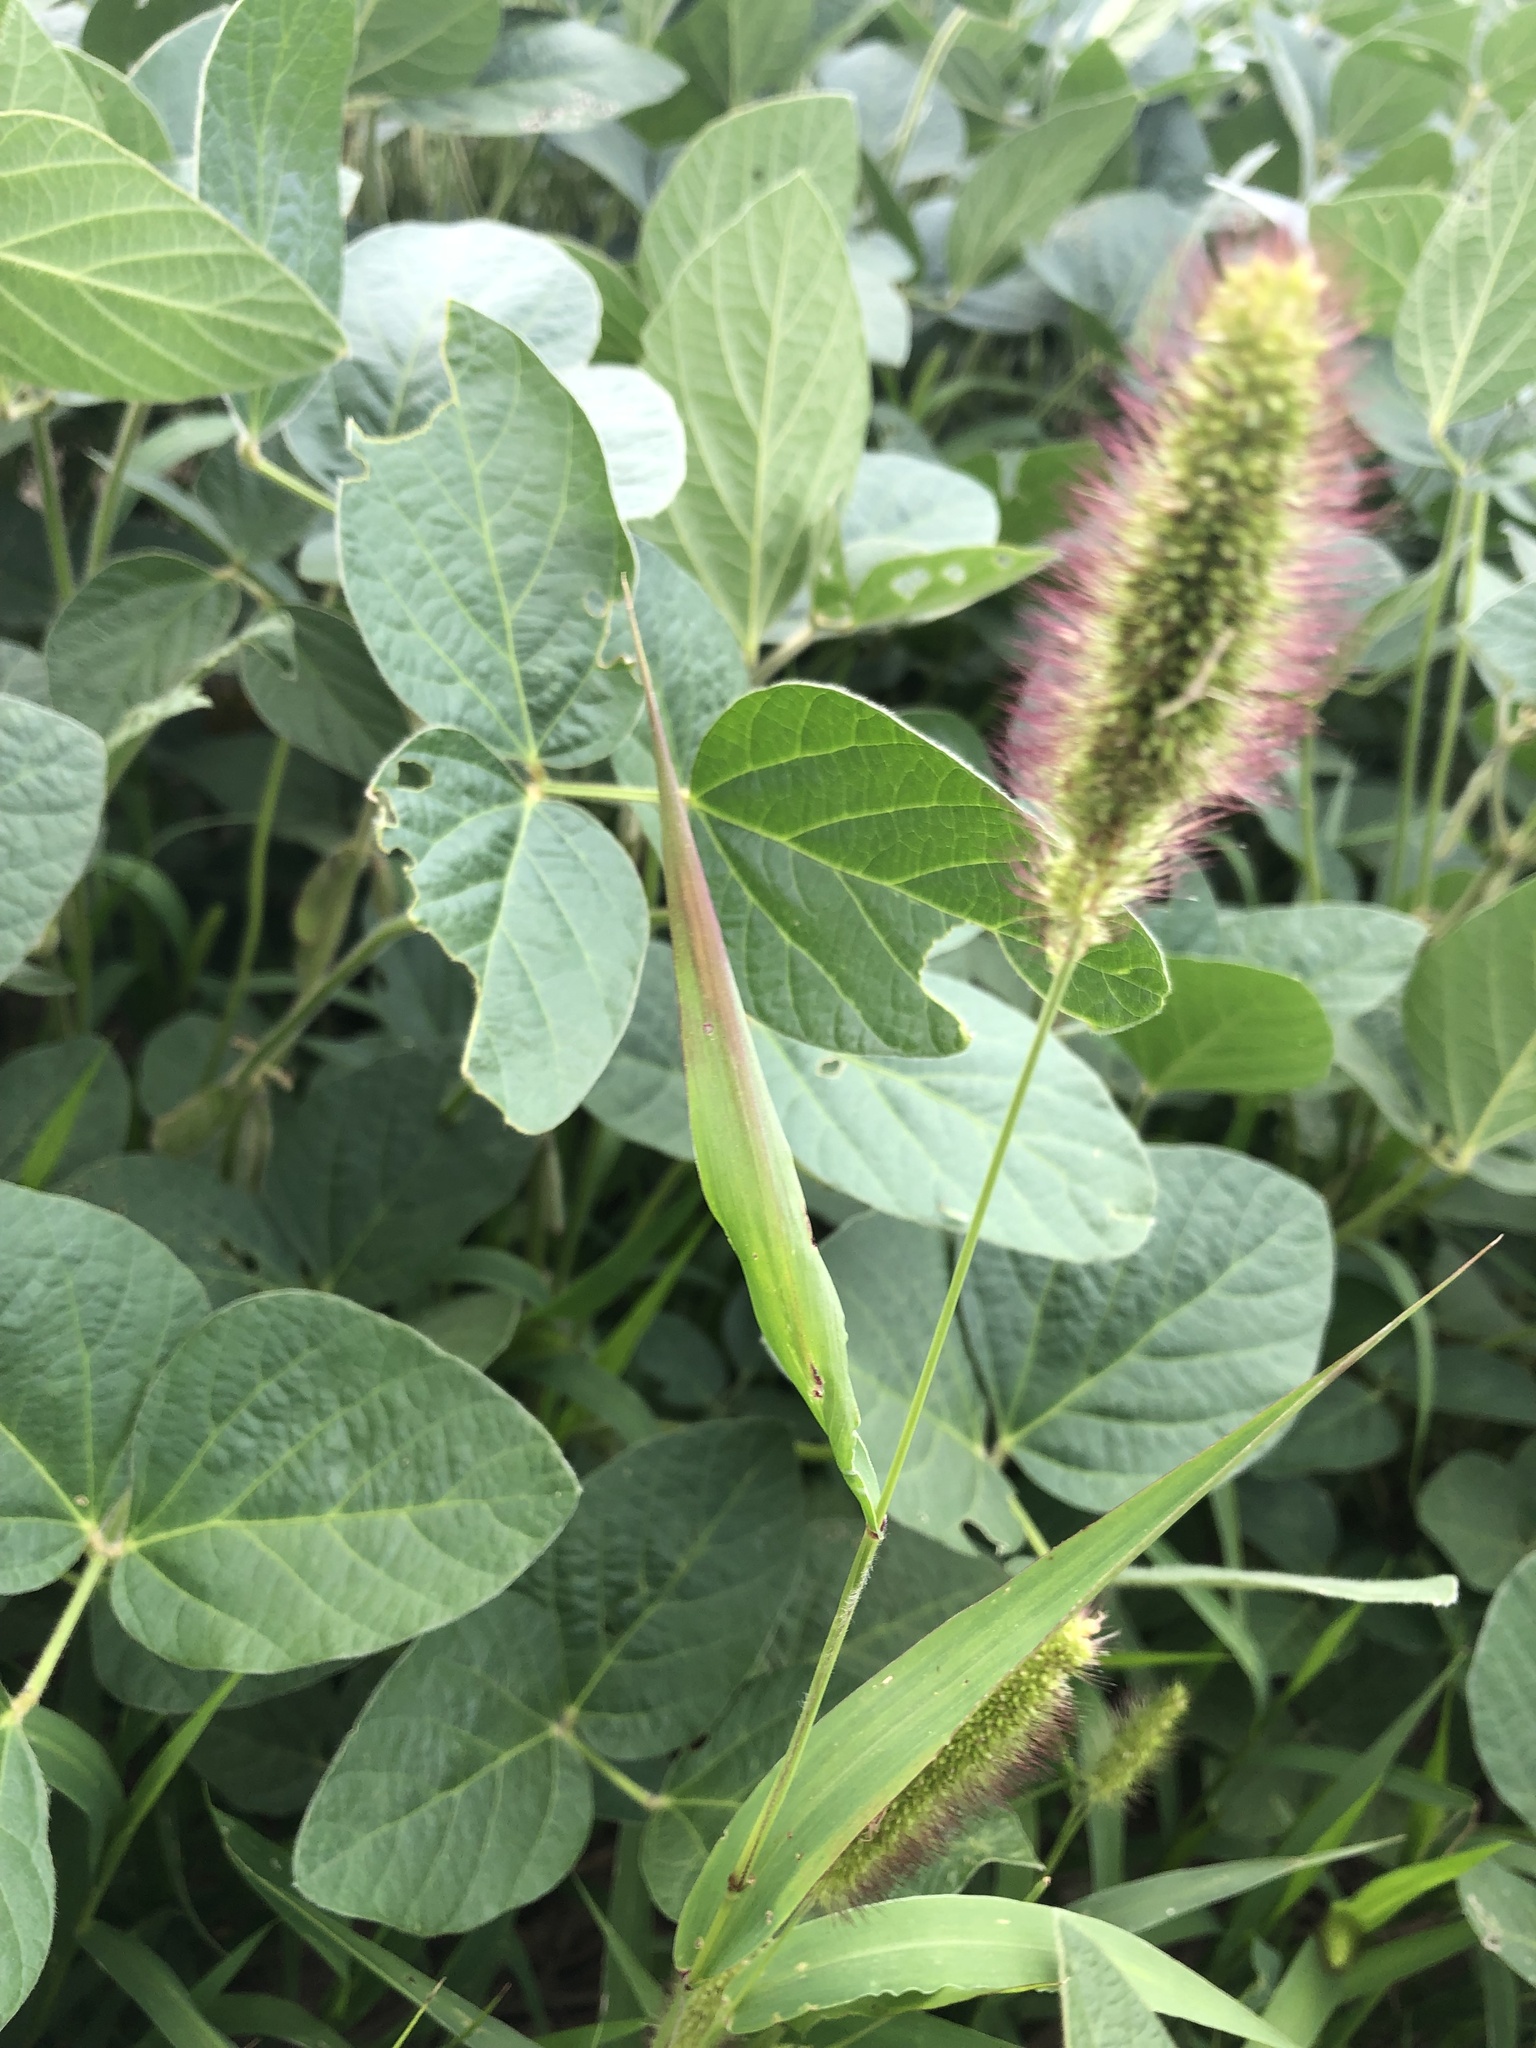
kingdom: Plantae
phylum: Tracheophyta
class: Liliopsida
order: Poales
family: Poaceae
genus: Setaria
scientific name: Setaria viridis
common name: Green bristlegrass
